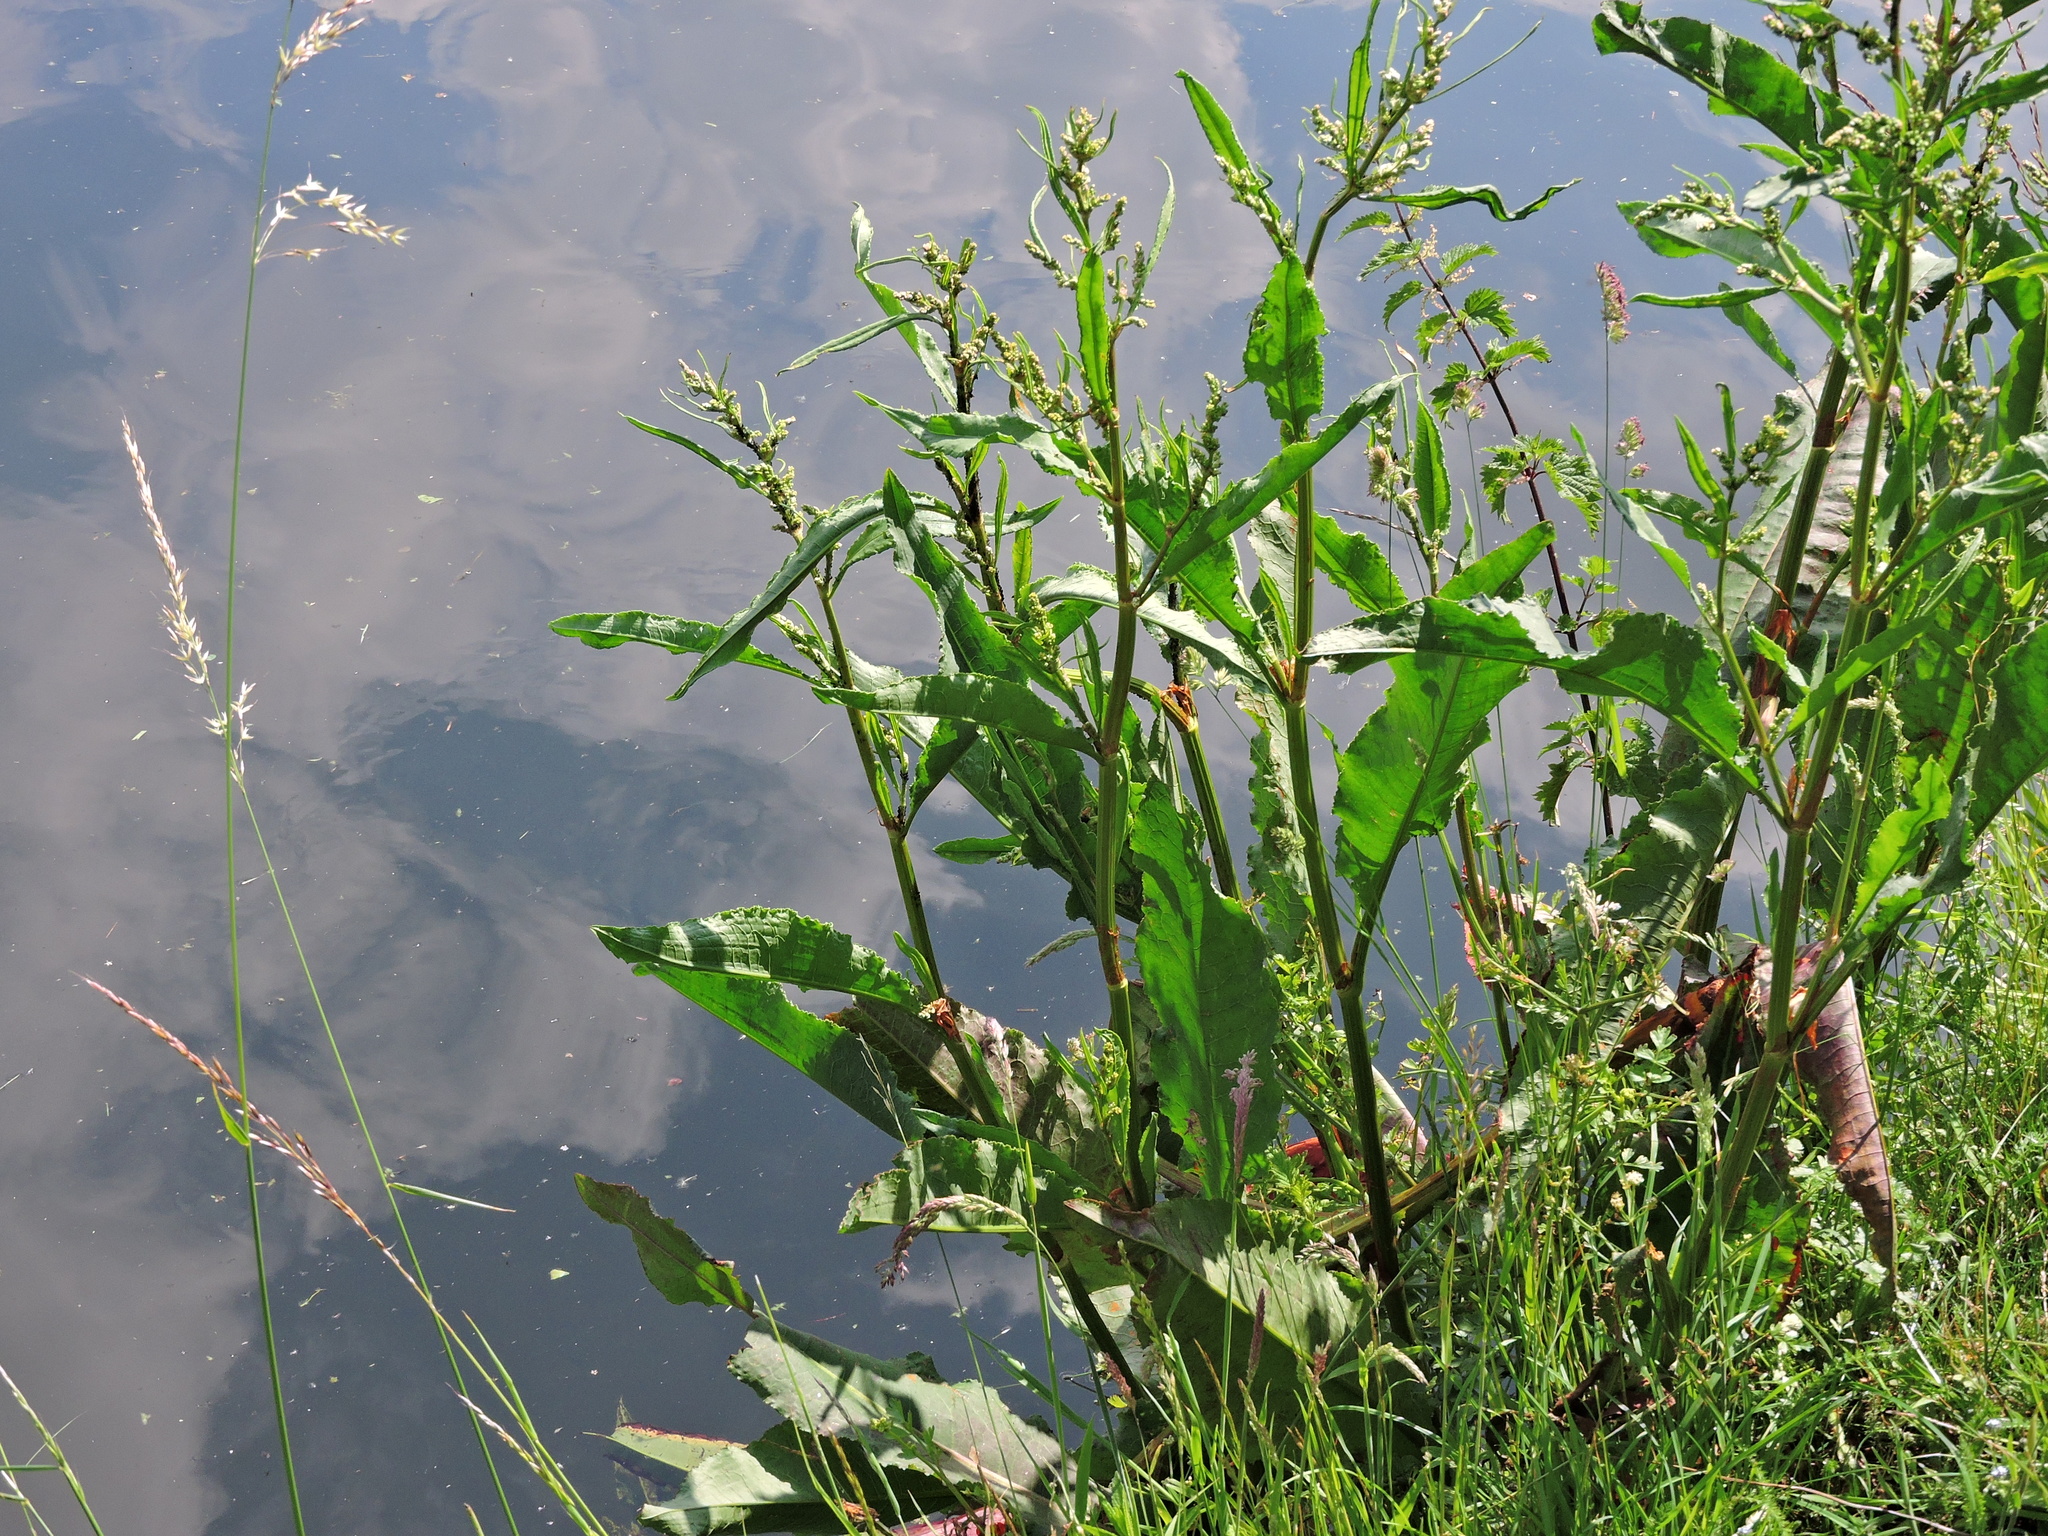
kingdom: Plantae
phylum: Tracheophyta
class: Magnoliopsida
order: Caryophyllales
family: Polygonaceae
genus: Rumex
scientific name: Rumex hydrolapathum
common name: Water dock
